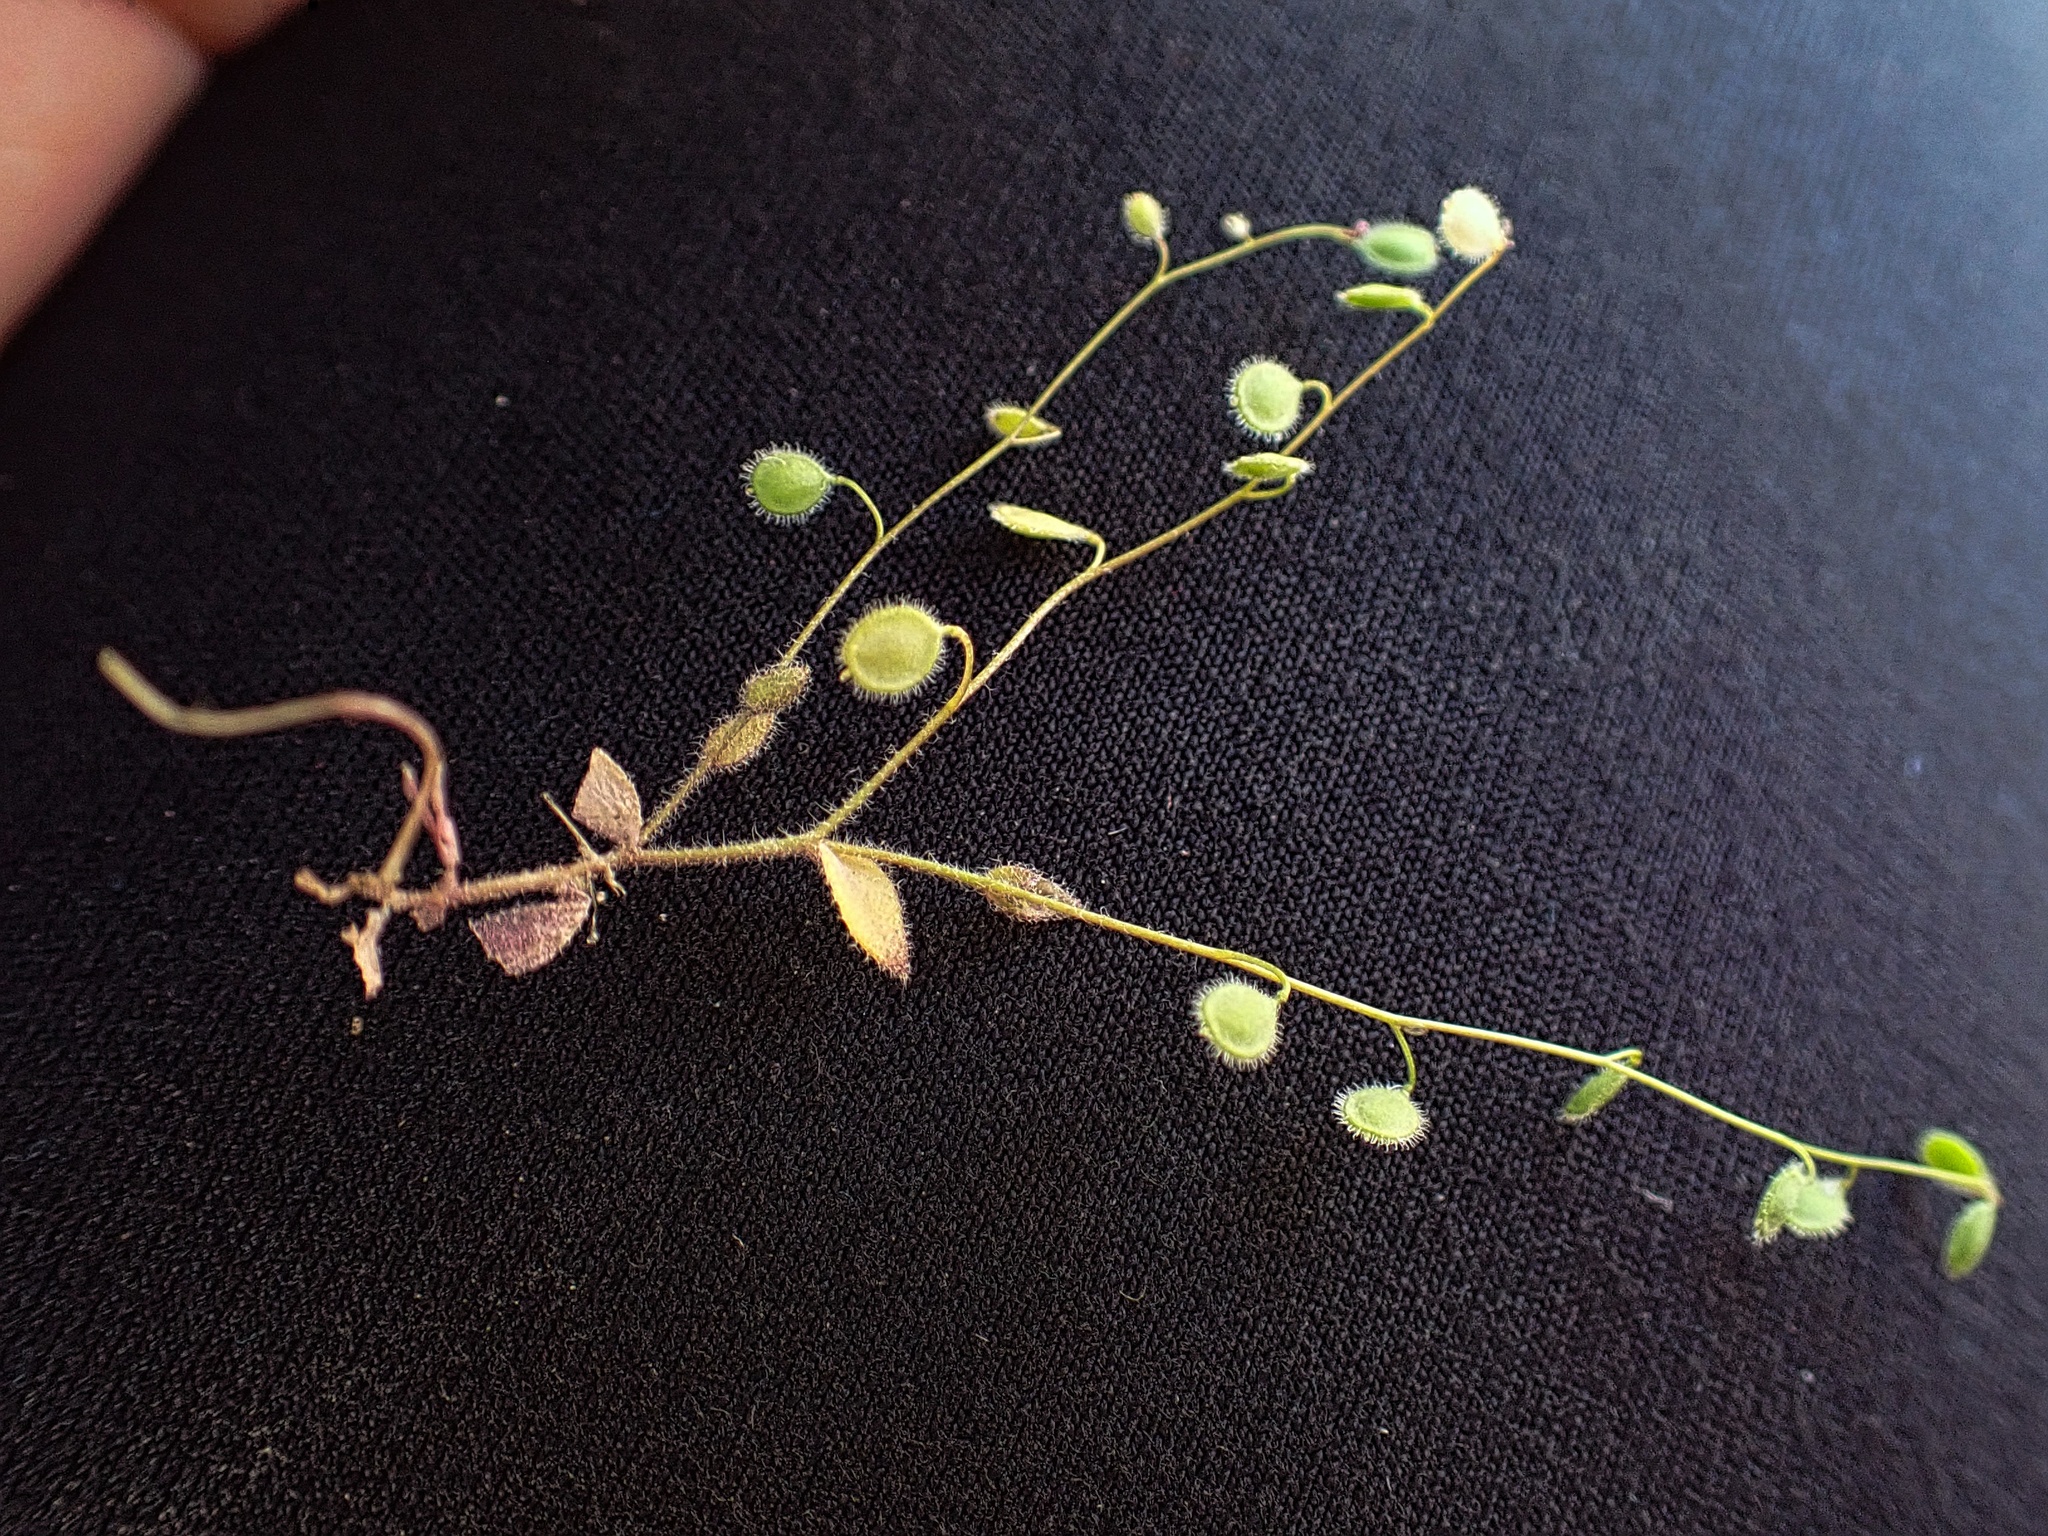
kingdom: Plantae
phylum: Tracheophyta
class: Magnoliopsida
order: Brassicales
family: Brassicaceae
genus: Athysanus
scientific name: Athysanus pusillus
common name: Common sandweed
